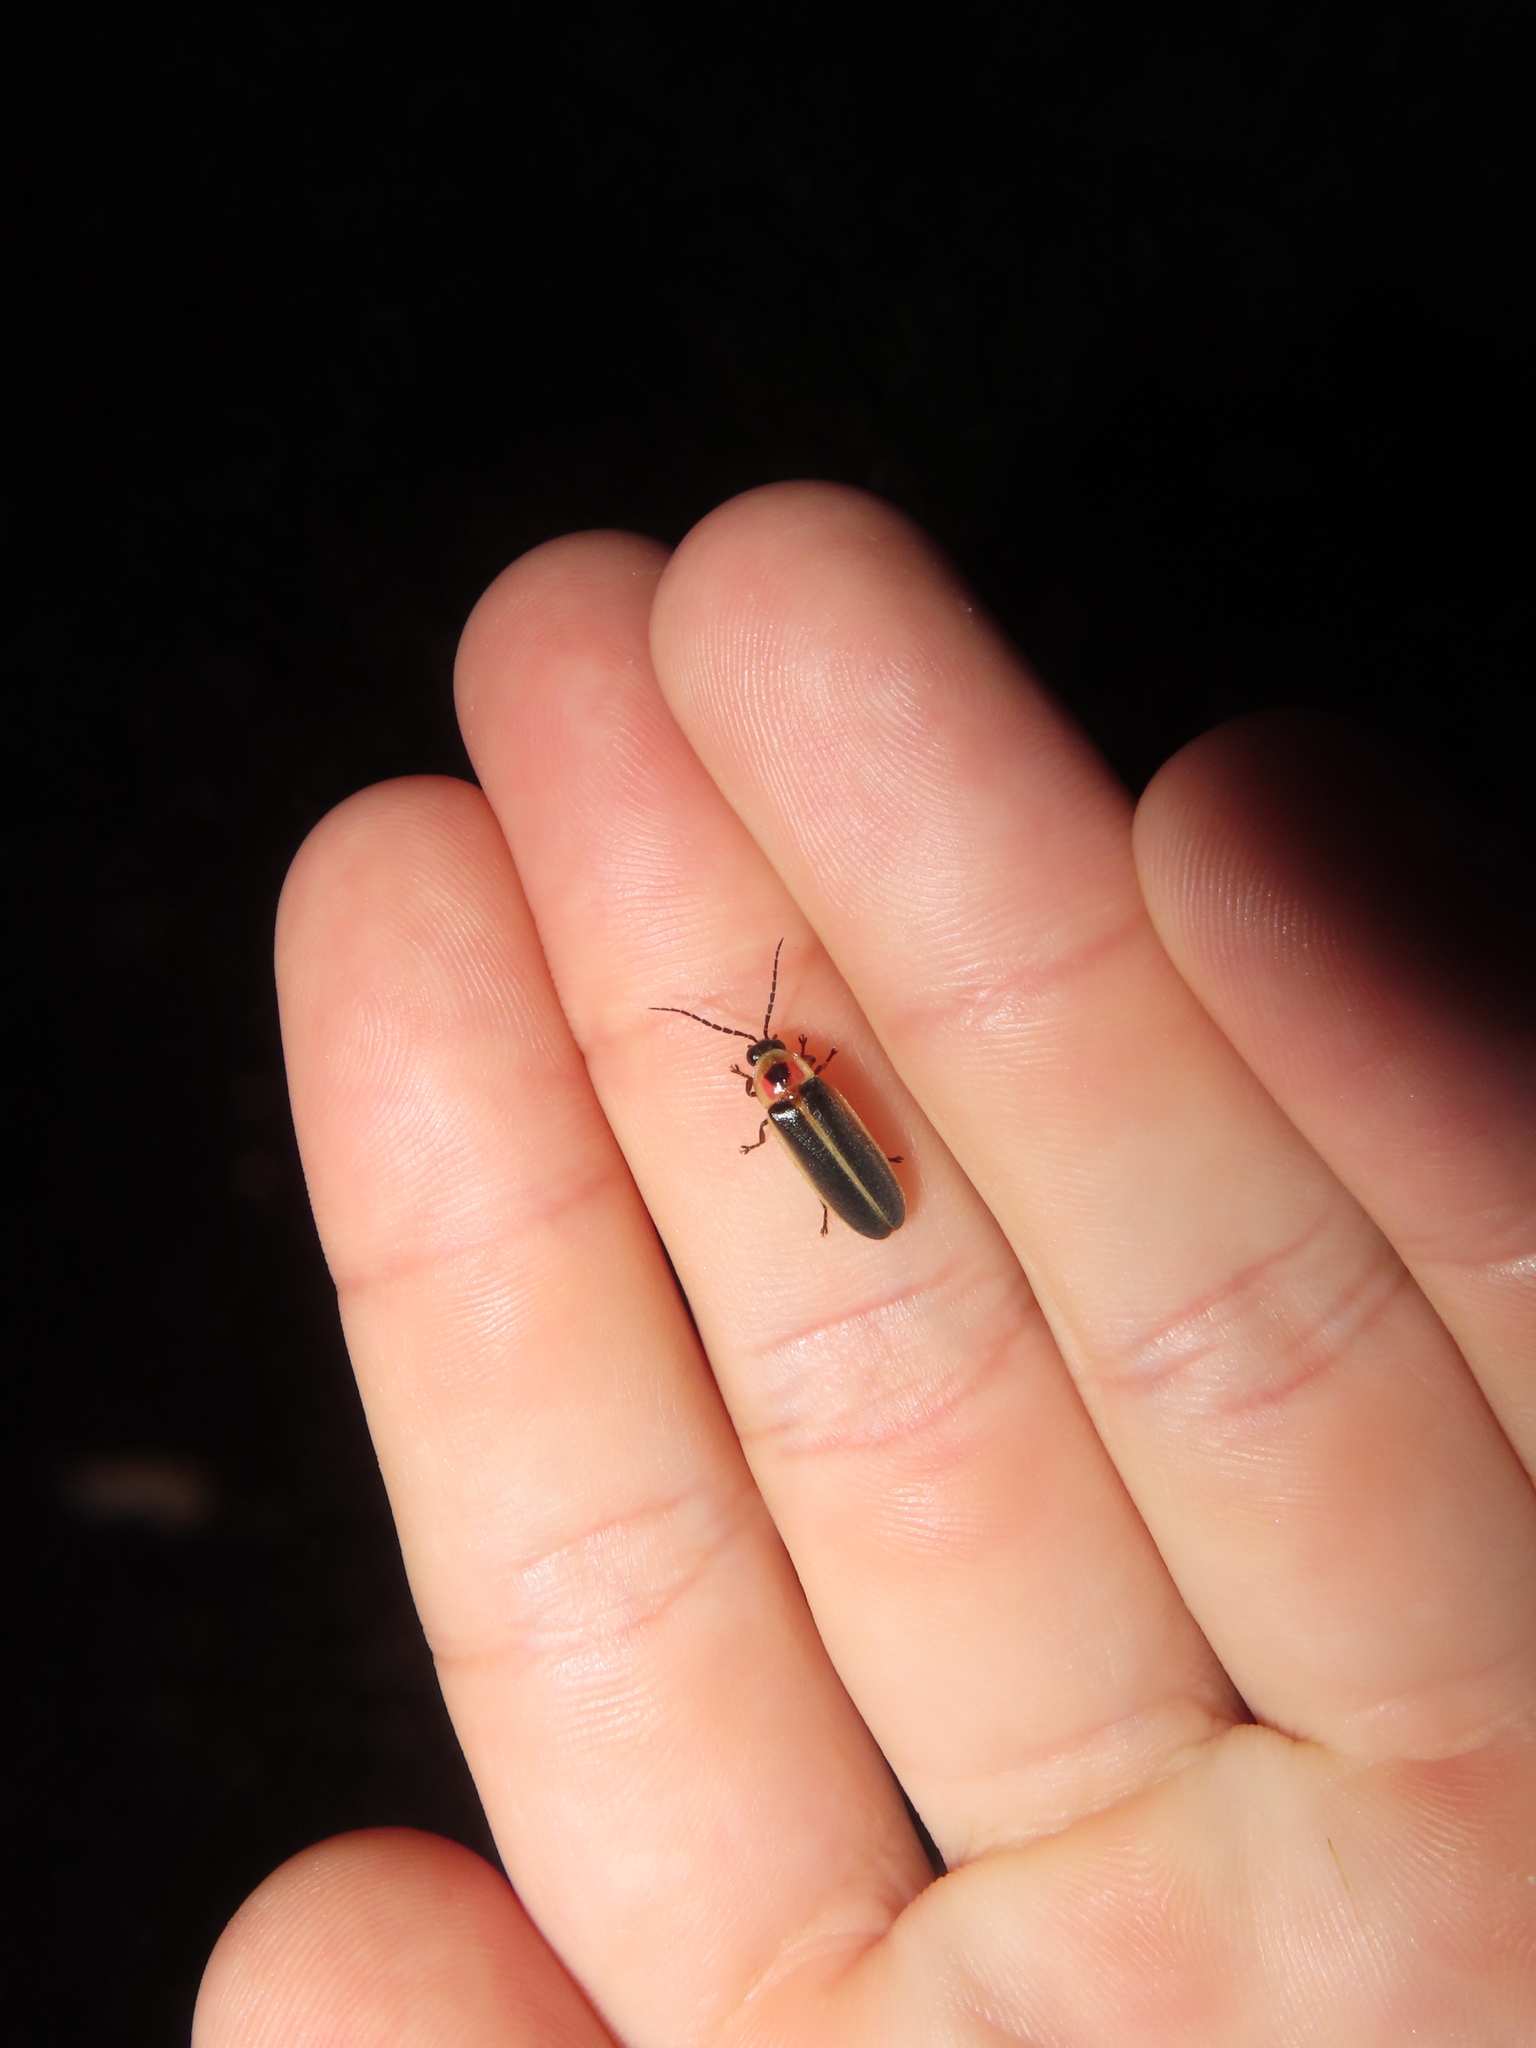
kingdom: Animalia
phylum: Arthropoda
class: Insecta
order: Coleoptera
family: Lampyridae
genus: Photinus
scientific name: Photinus pyralis
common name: Big dipper firefly
